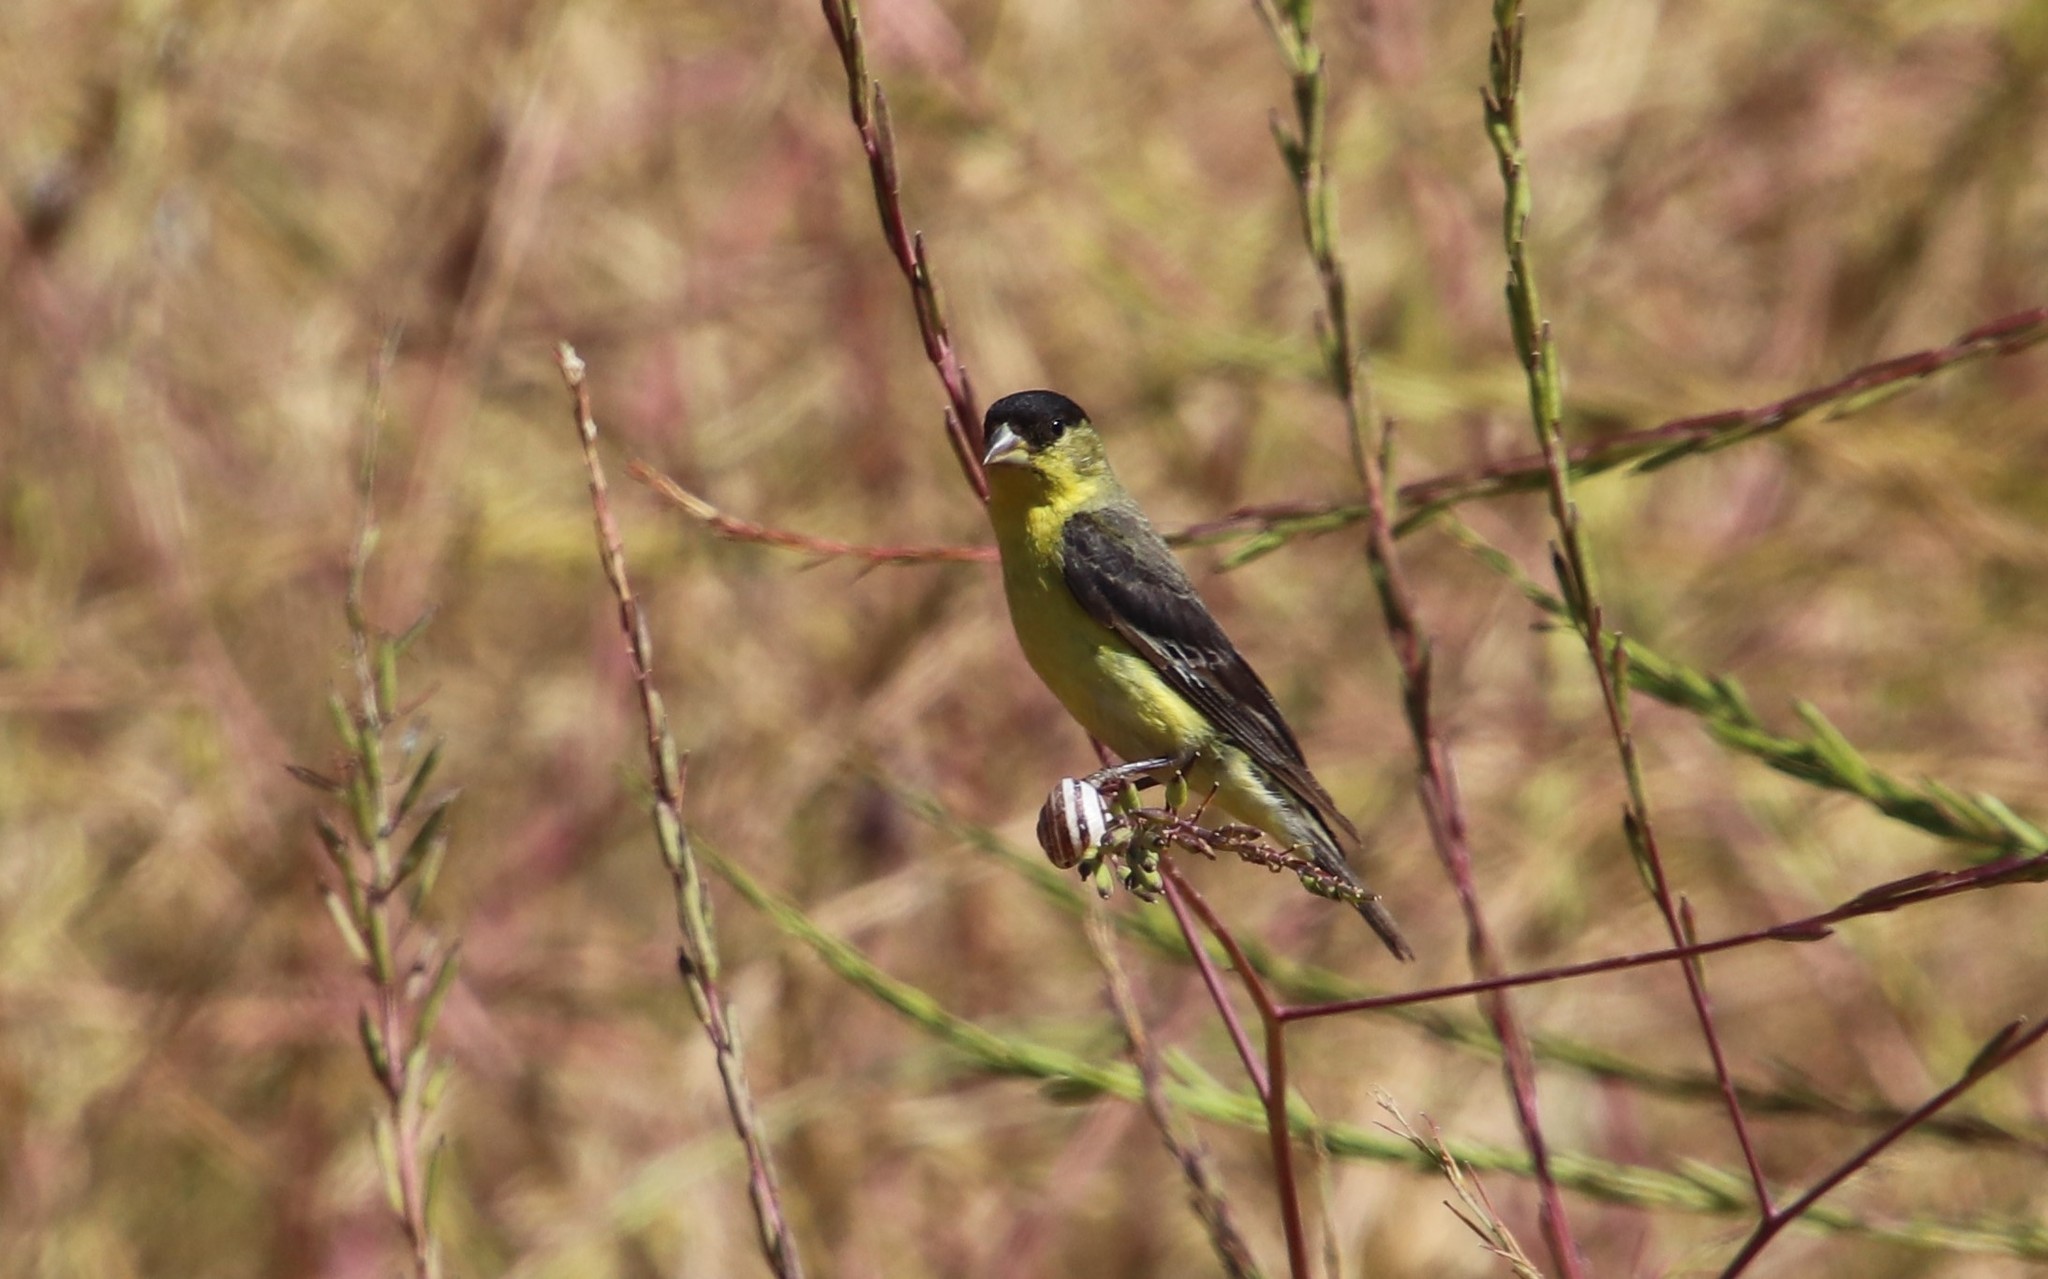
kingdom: Animalia
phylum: Chordata
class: Aves
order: Passeriformes
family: Fringillidae
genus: Spinus
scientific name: Spinus psaltria
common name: Lesser goldfinch
